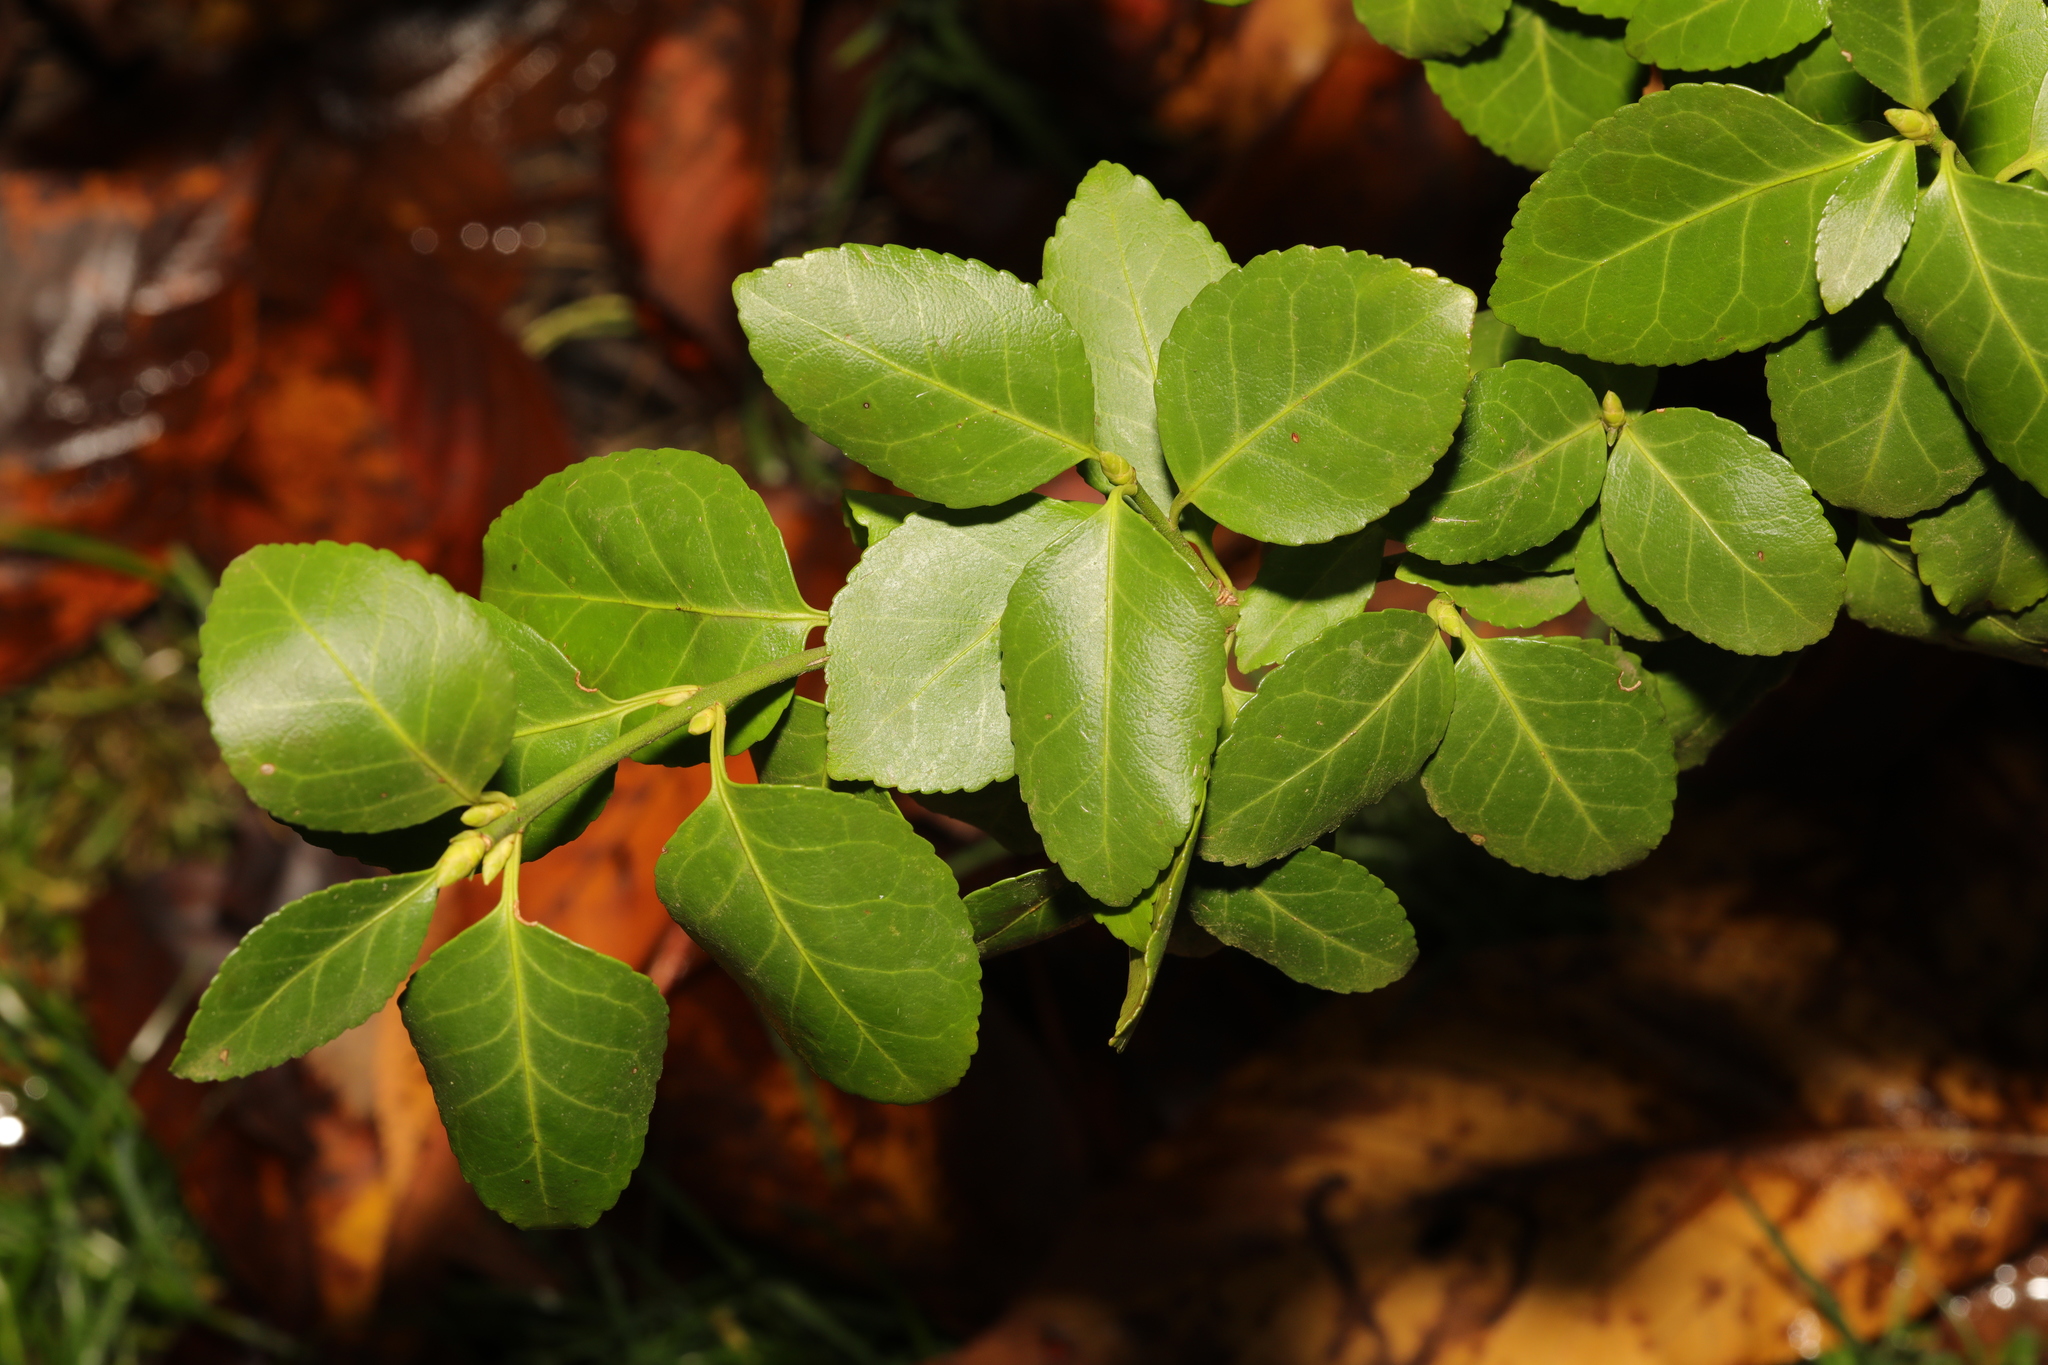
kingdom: Plantae
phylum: Tracheophyta
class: Magnoliopsida
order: Celastrales
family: Celastraceae
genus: Euonymus
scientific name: Euonymus fortunei
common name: Climbing euonymus
